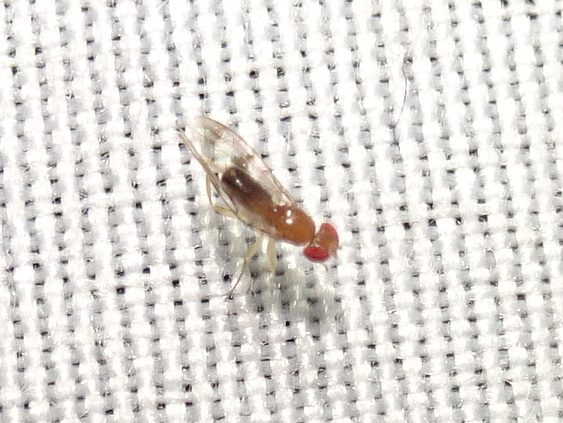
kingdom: Animalia
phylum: Arthropoda
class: Insecta
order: Diptera
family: Drosophilidae
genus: Chymomyza
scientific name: Chymomyza amoena
